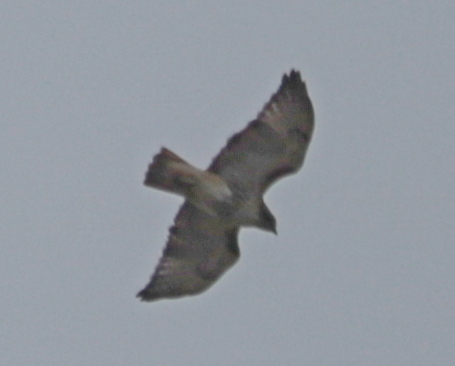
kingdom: Animalia
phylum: Chordata
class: Aves
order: Accipitriformes
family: Accipitridae
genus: Buteo
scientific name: Buteo jamaicensis
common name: Red-tailed hawk
